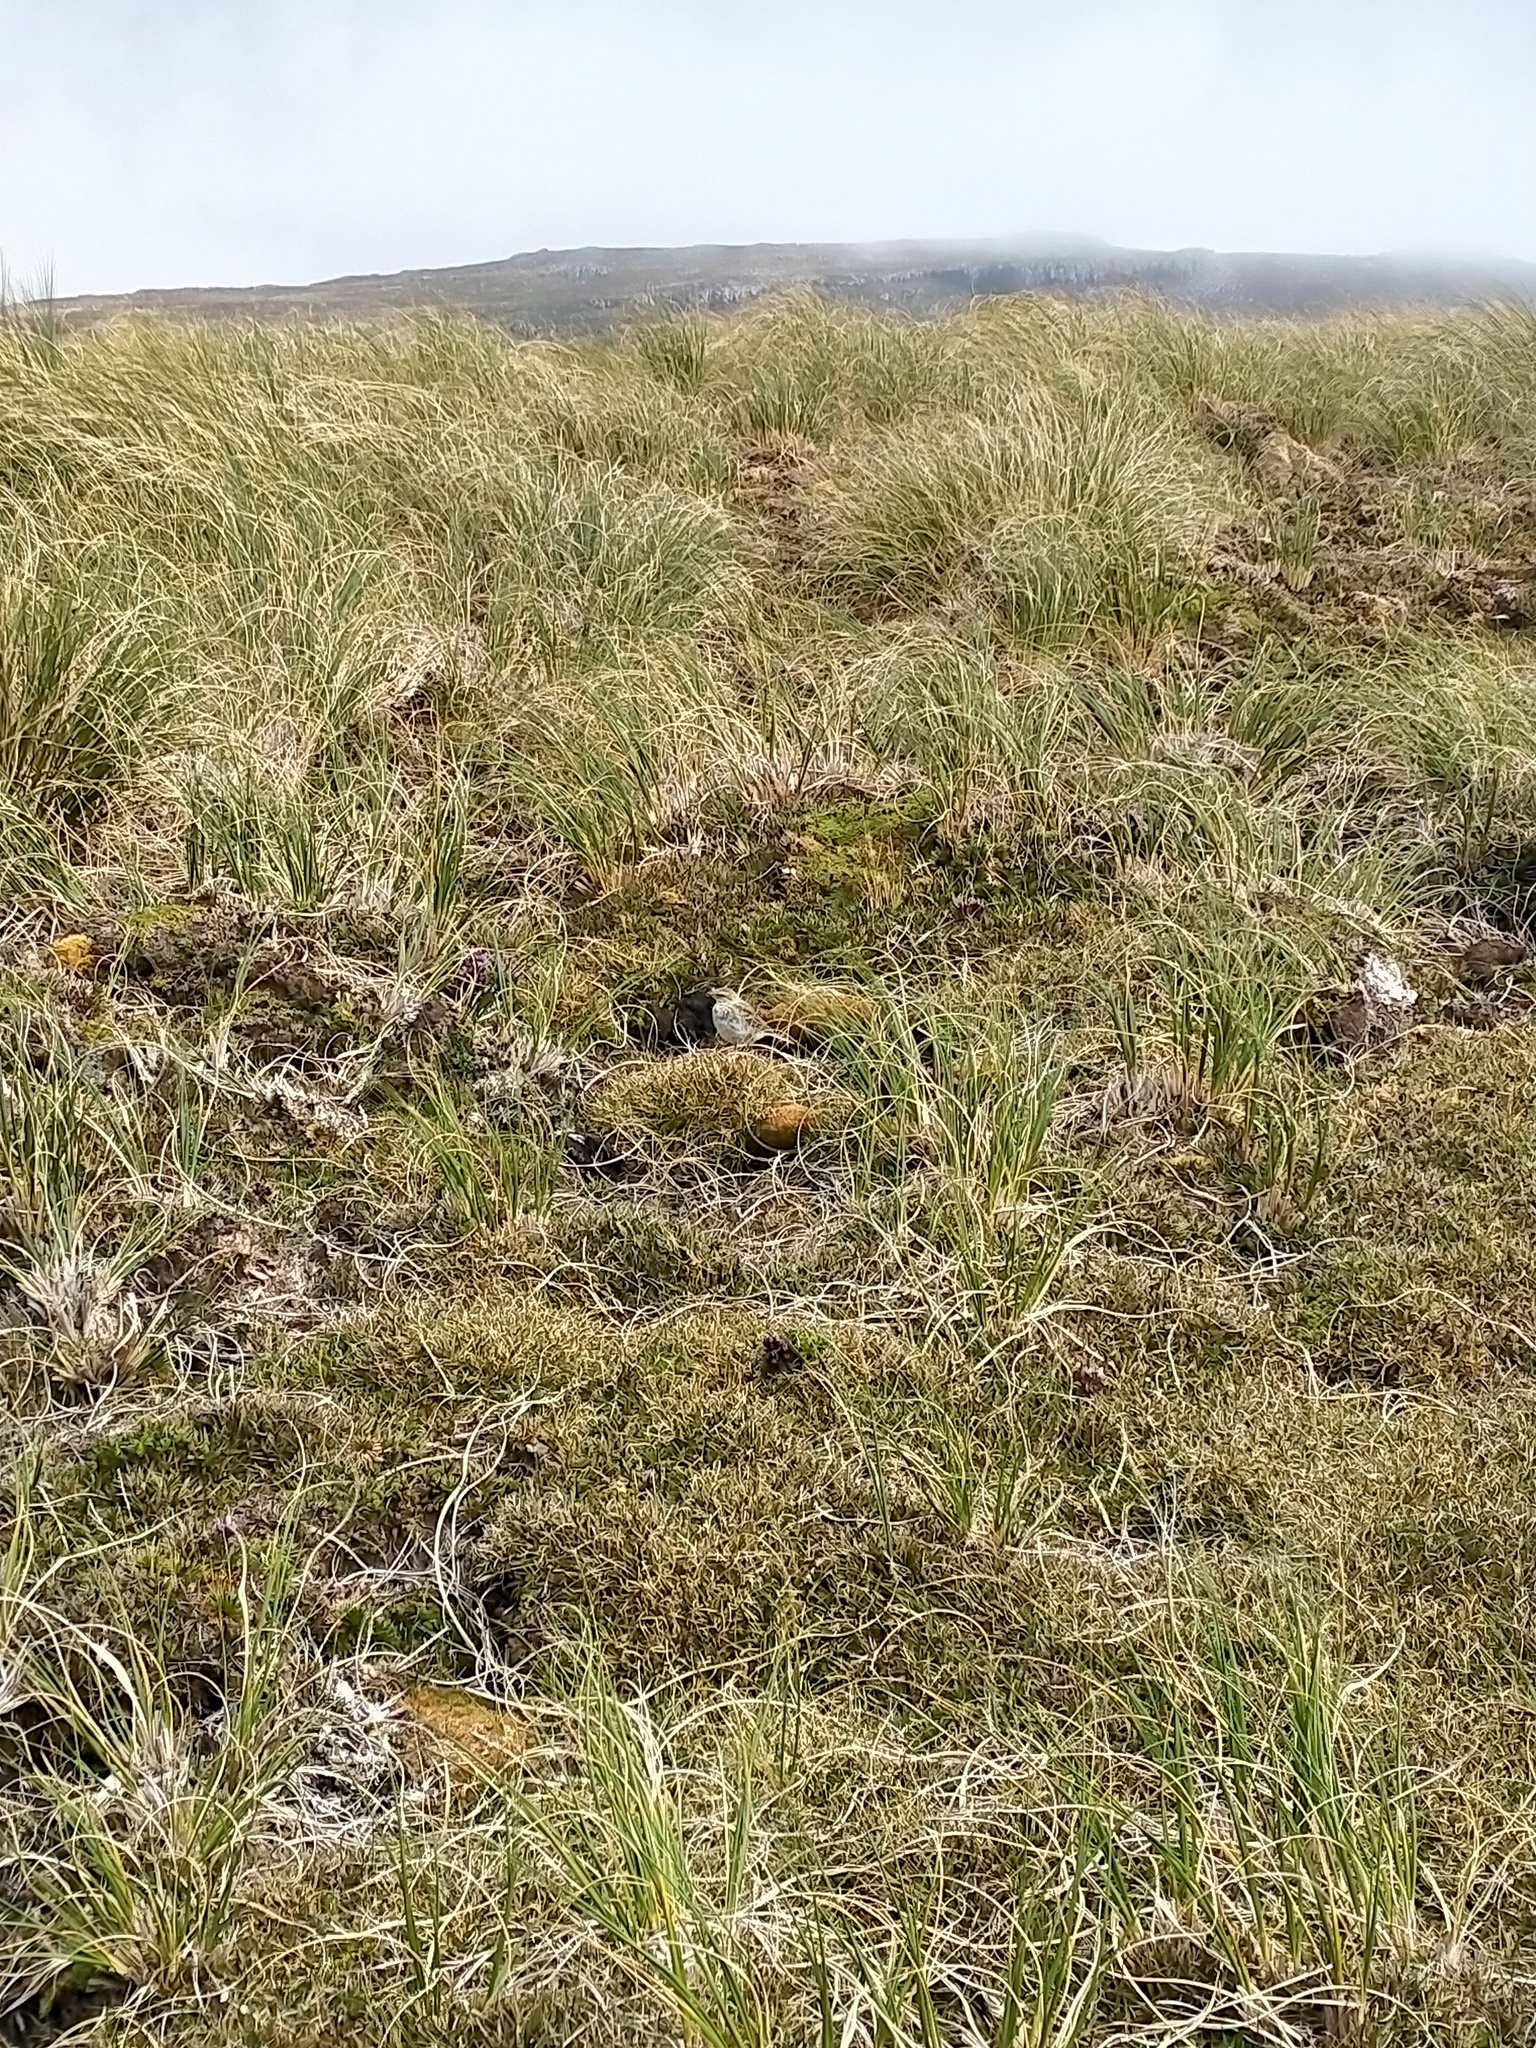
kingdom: Animalia
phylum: Chordata
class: Aves
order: Passeriformes
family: Motacillidae
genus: Anthus
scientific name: Anthus novaeseelandiae
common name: New zealand pipit
